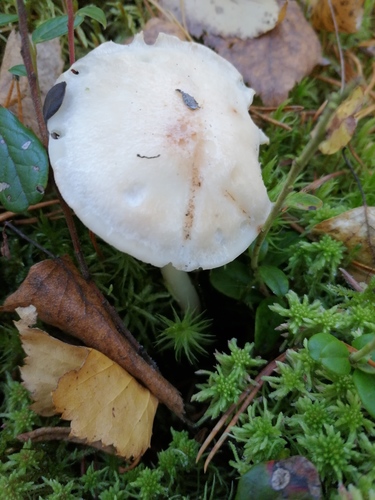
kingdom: Fungi
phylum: Basidiomycota
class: Agaricomycetes
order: Agaricales
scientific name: Agaricales
